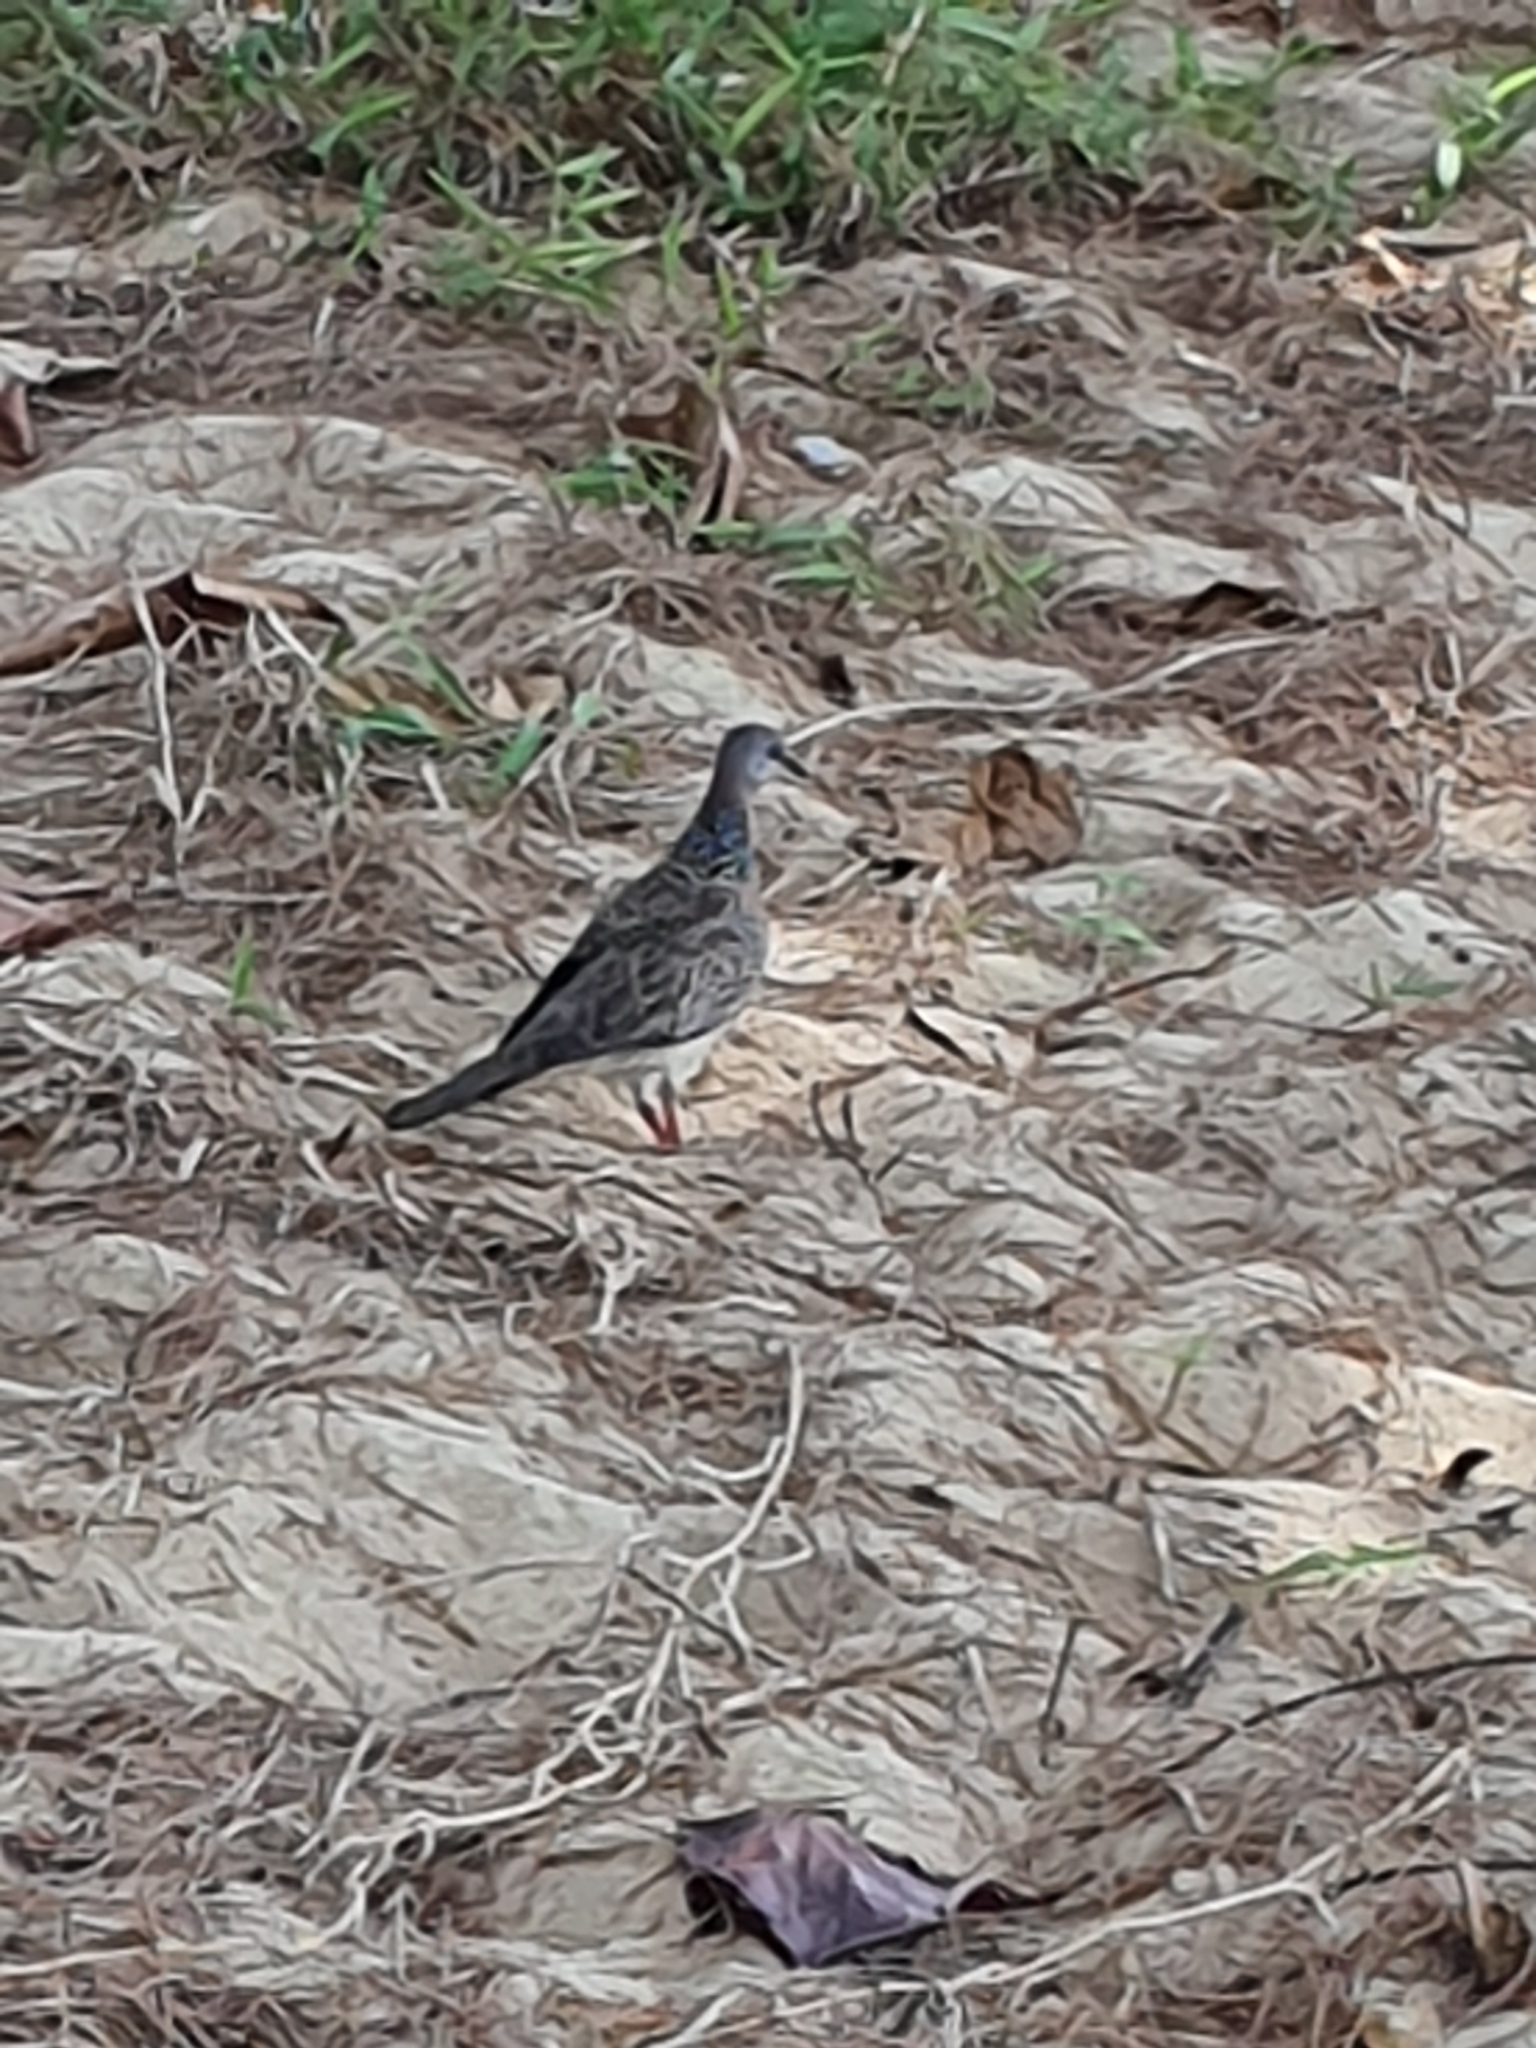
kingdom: Animalia
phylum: Chordata
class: Aves
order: Columbiformes
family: Columbidae
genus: Spilopelia
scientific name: Spilopelia chinensis
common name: Spotted dove
